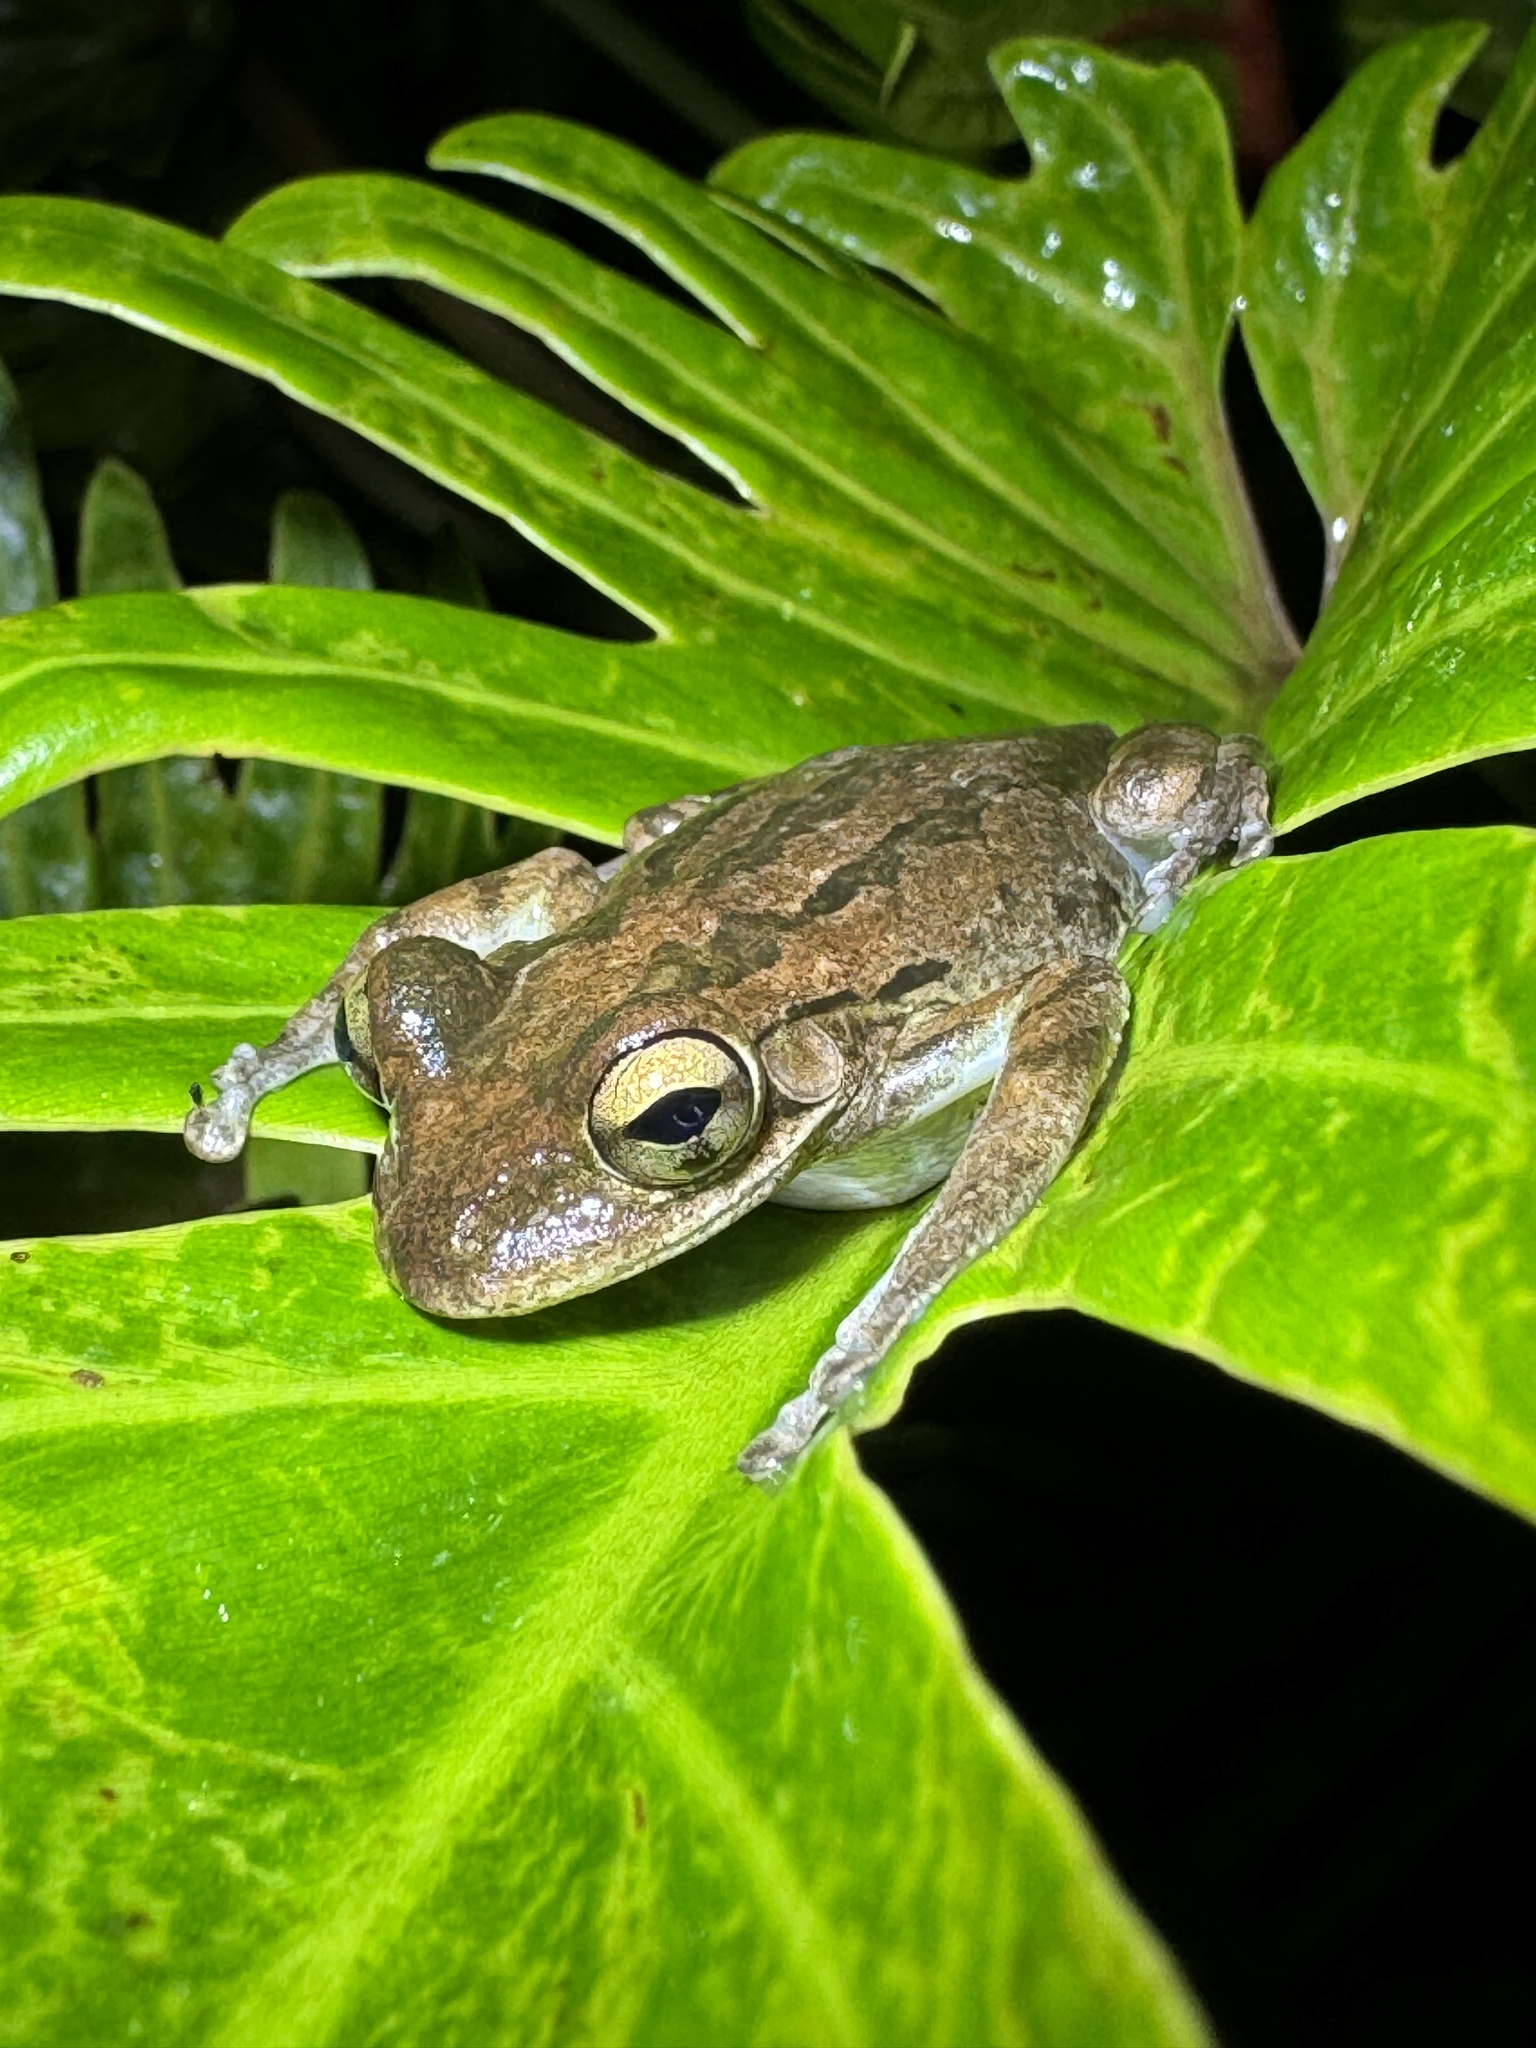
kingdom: Animalia
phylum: Chordata
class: Amphibia
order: Anura
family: Hylidae
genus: Osteopilus
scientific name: Osteopilus septentrionalis
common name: Cuban treefrog
